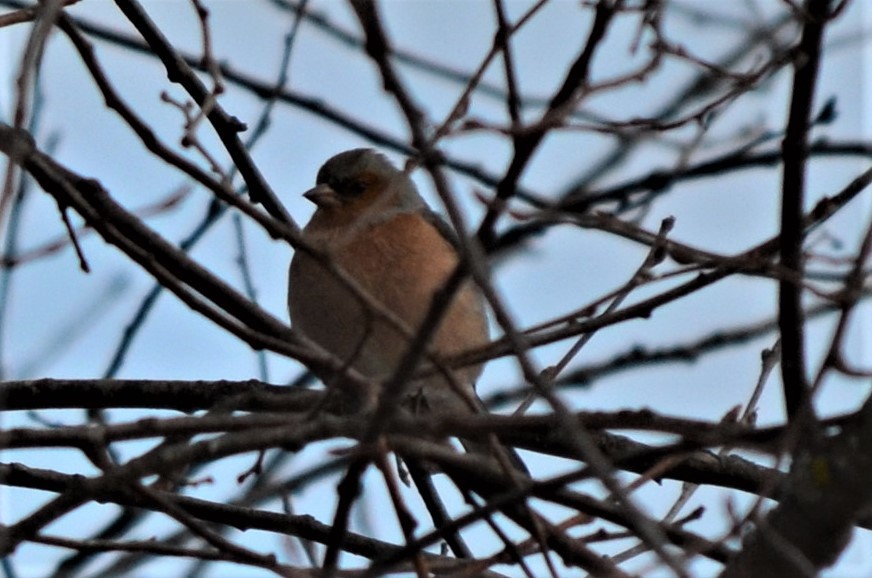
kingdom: Animalia
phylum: Chordata
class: Aves
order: Passeriformes
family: Fringillidae
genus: Fringilla
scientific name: Fringilla coelebs
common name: Common chaffinch
